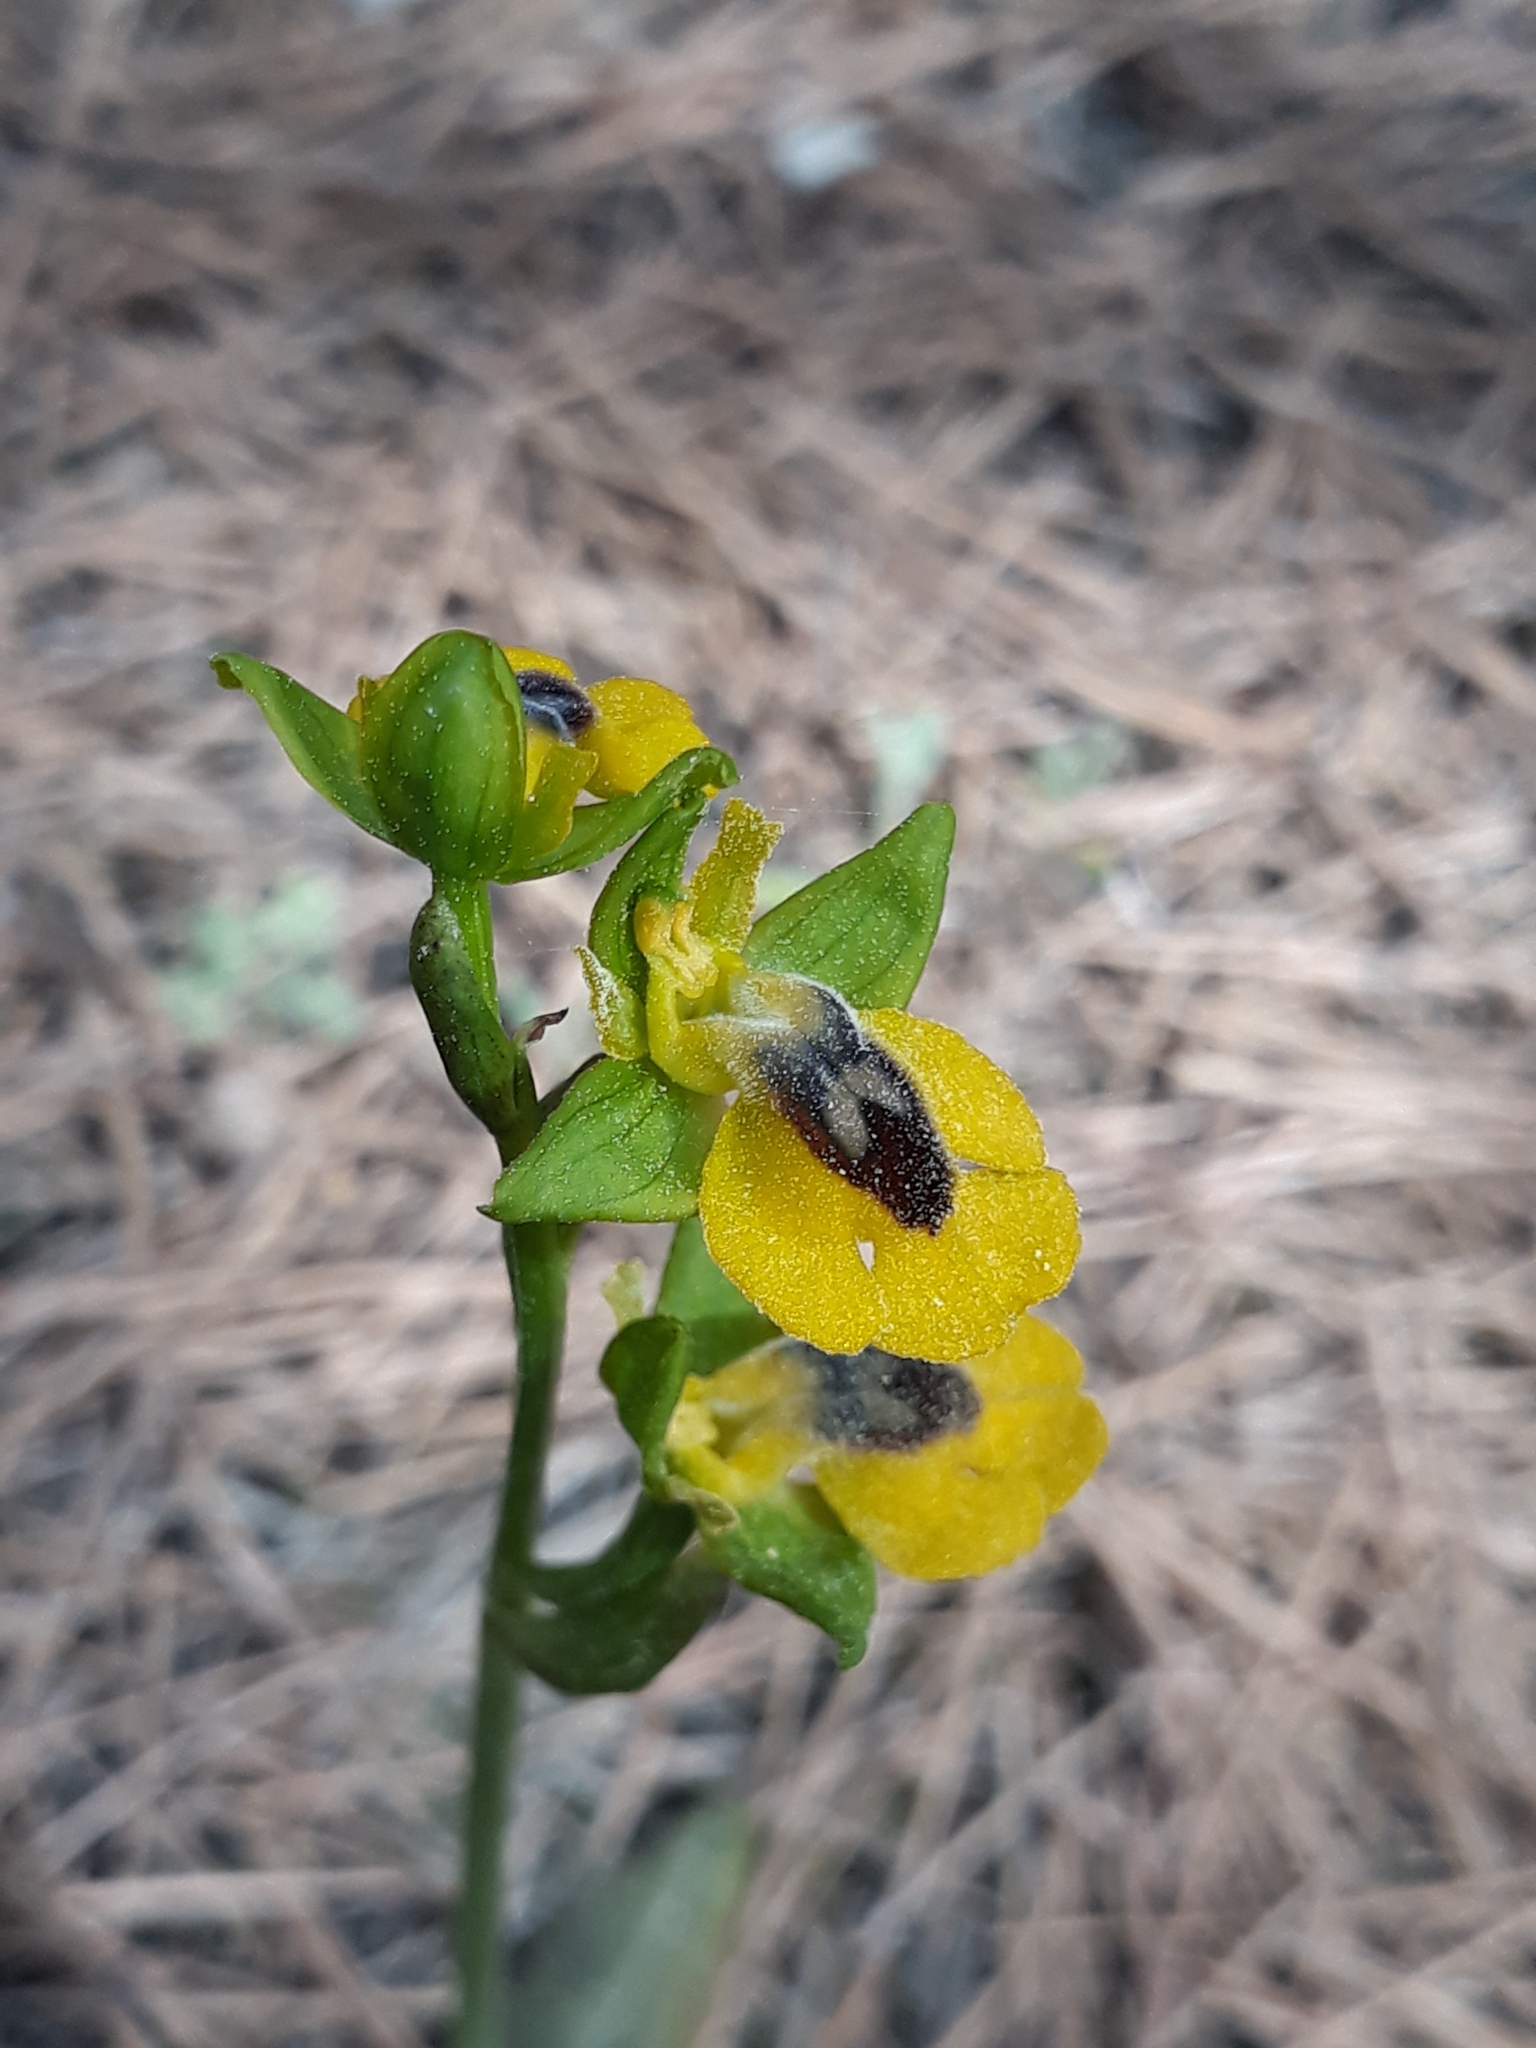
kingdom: Plantae
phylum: Tracheophyta
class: Liliopsida
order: Asparagales
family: Orchidaceae
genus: Ophrys
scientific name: Ophrys lutea
